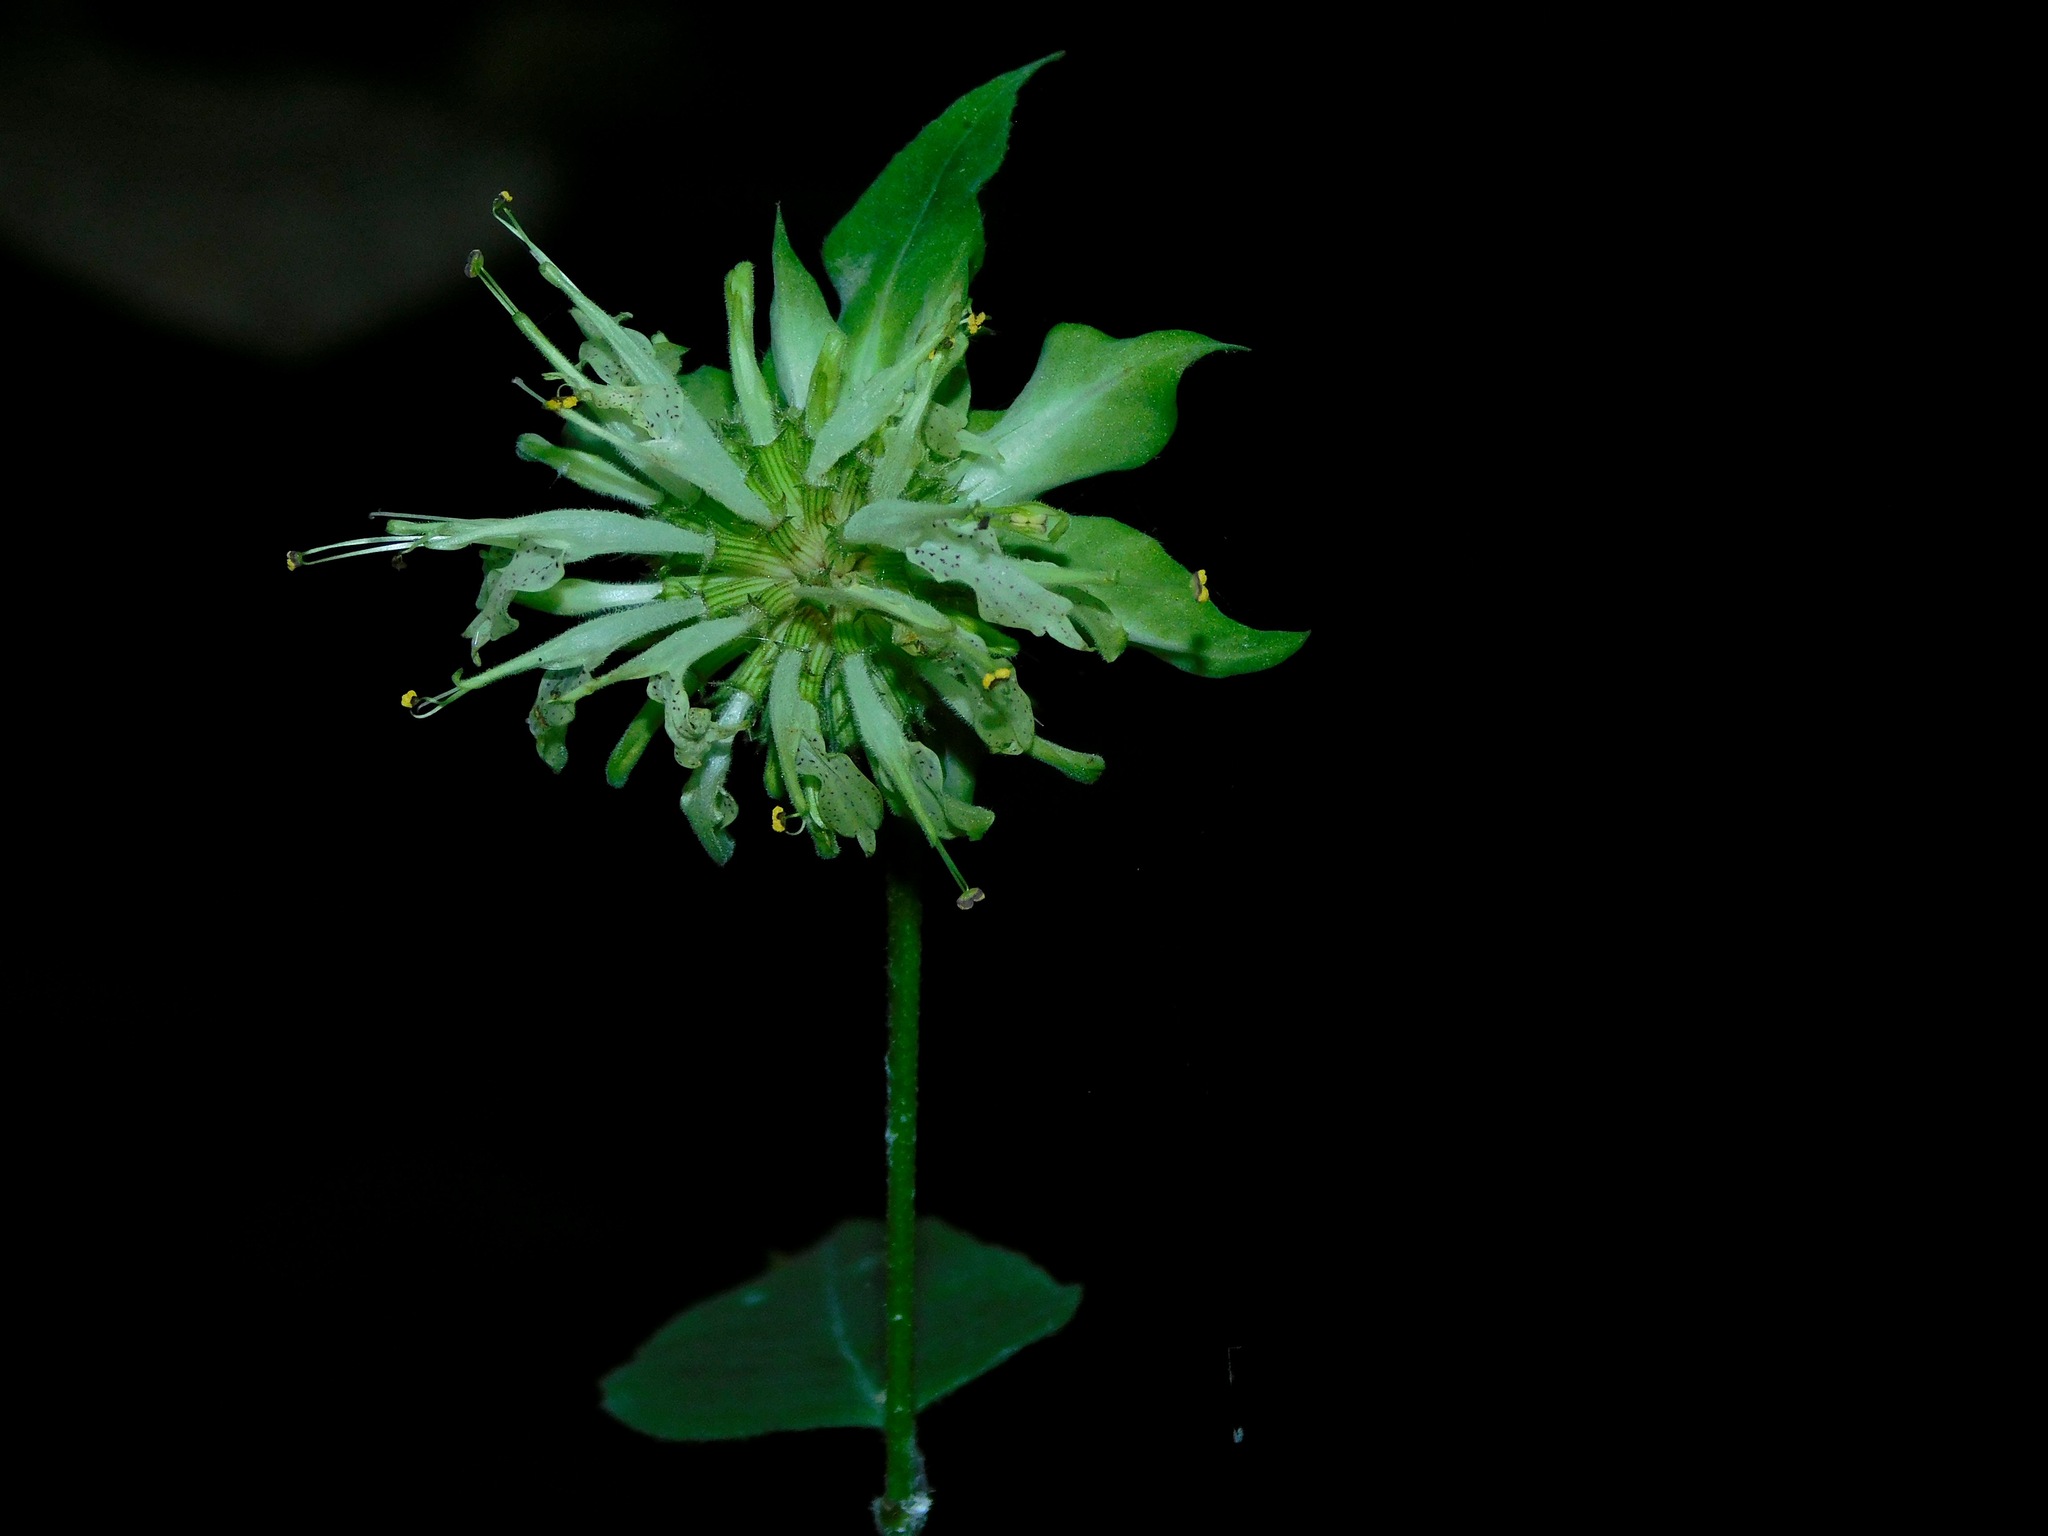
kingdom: Plantae
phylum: Tracheophyta
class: Magnoliopsida
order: Lamiales
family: Lamiaceae
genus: Monarda
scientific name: Monarda clinopodia
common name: Basil beebalm
